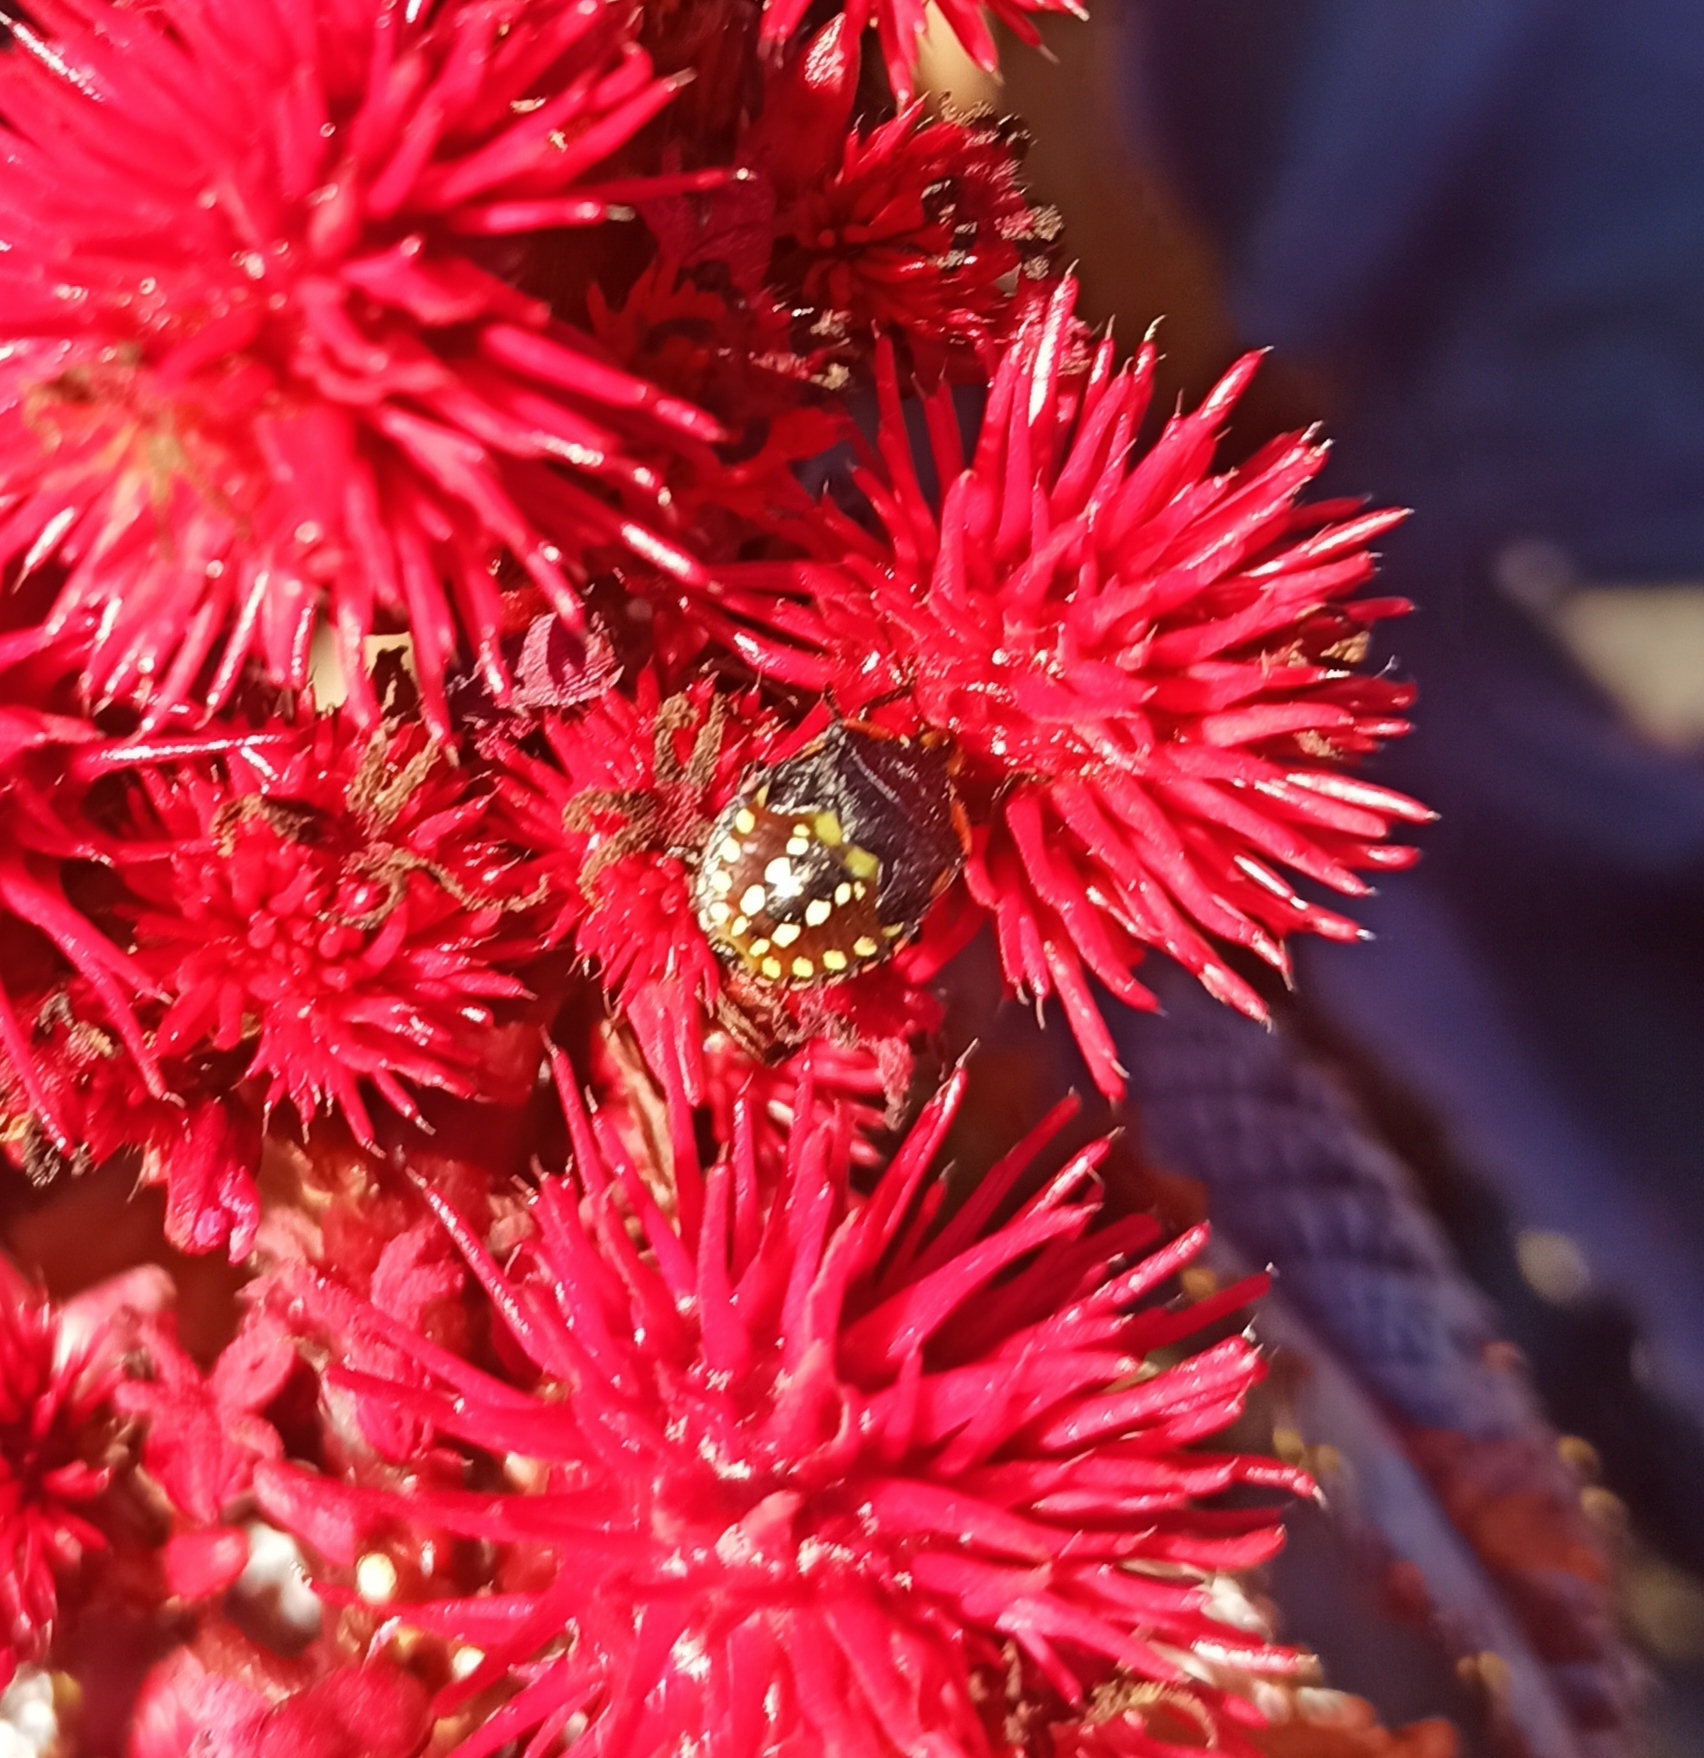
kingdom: Animalia
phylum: Arthropoda
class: Insecta
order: Hemiptera
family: Pentatomidae
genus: Nezara
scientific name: Nezara viridula
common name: Southern green stink bug
